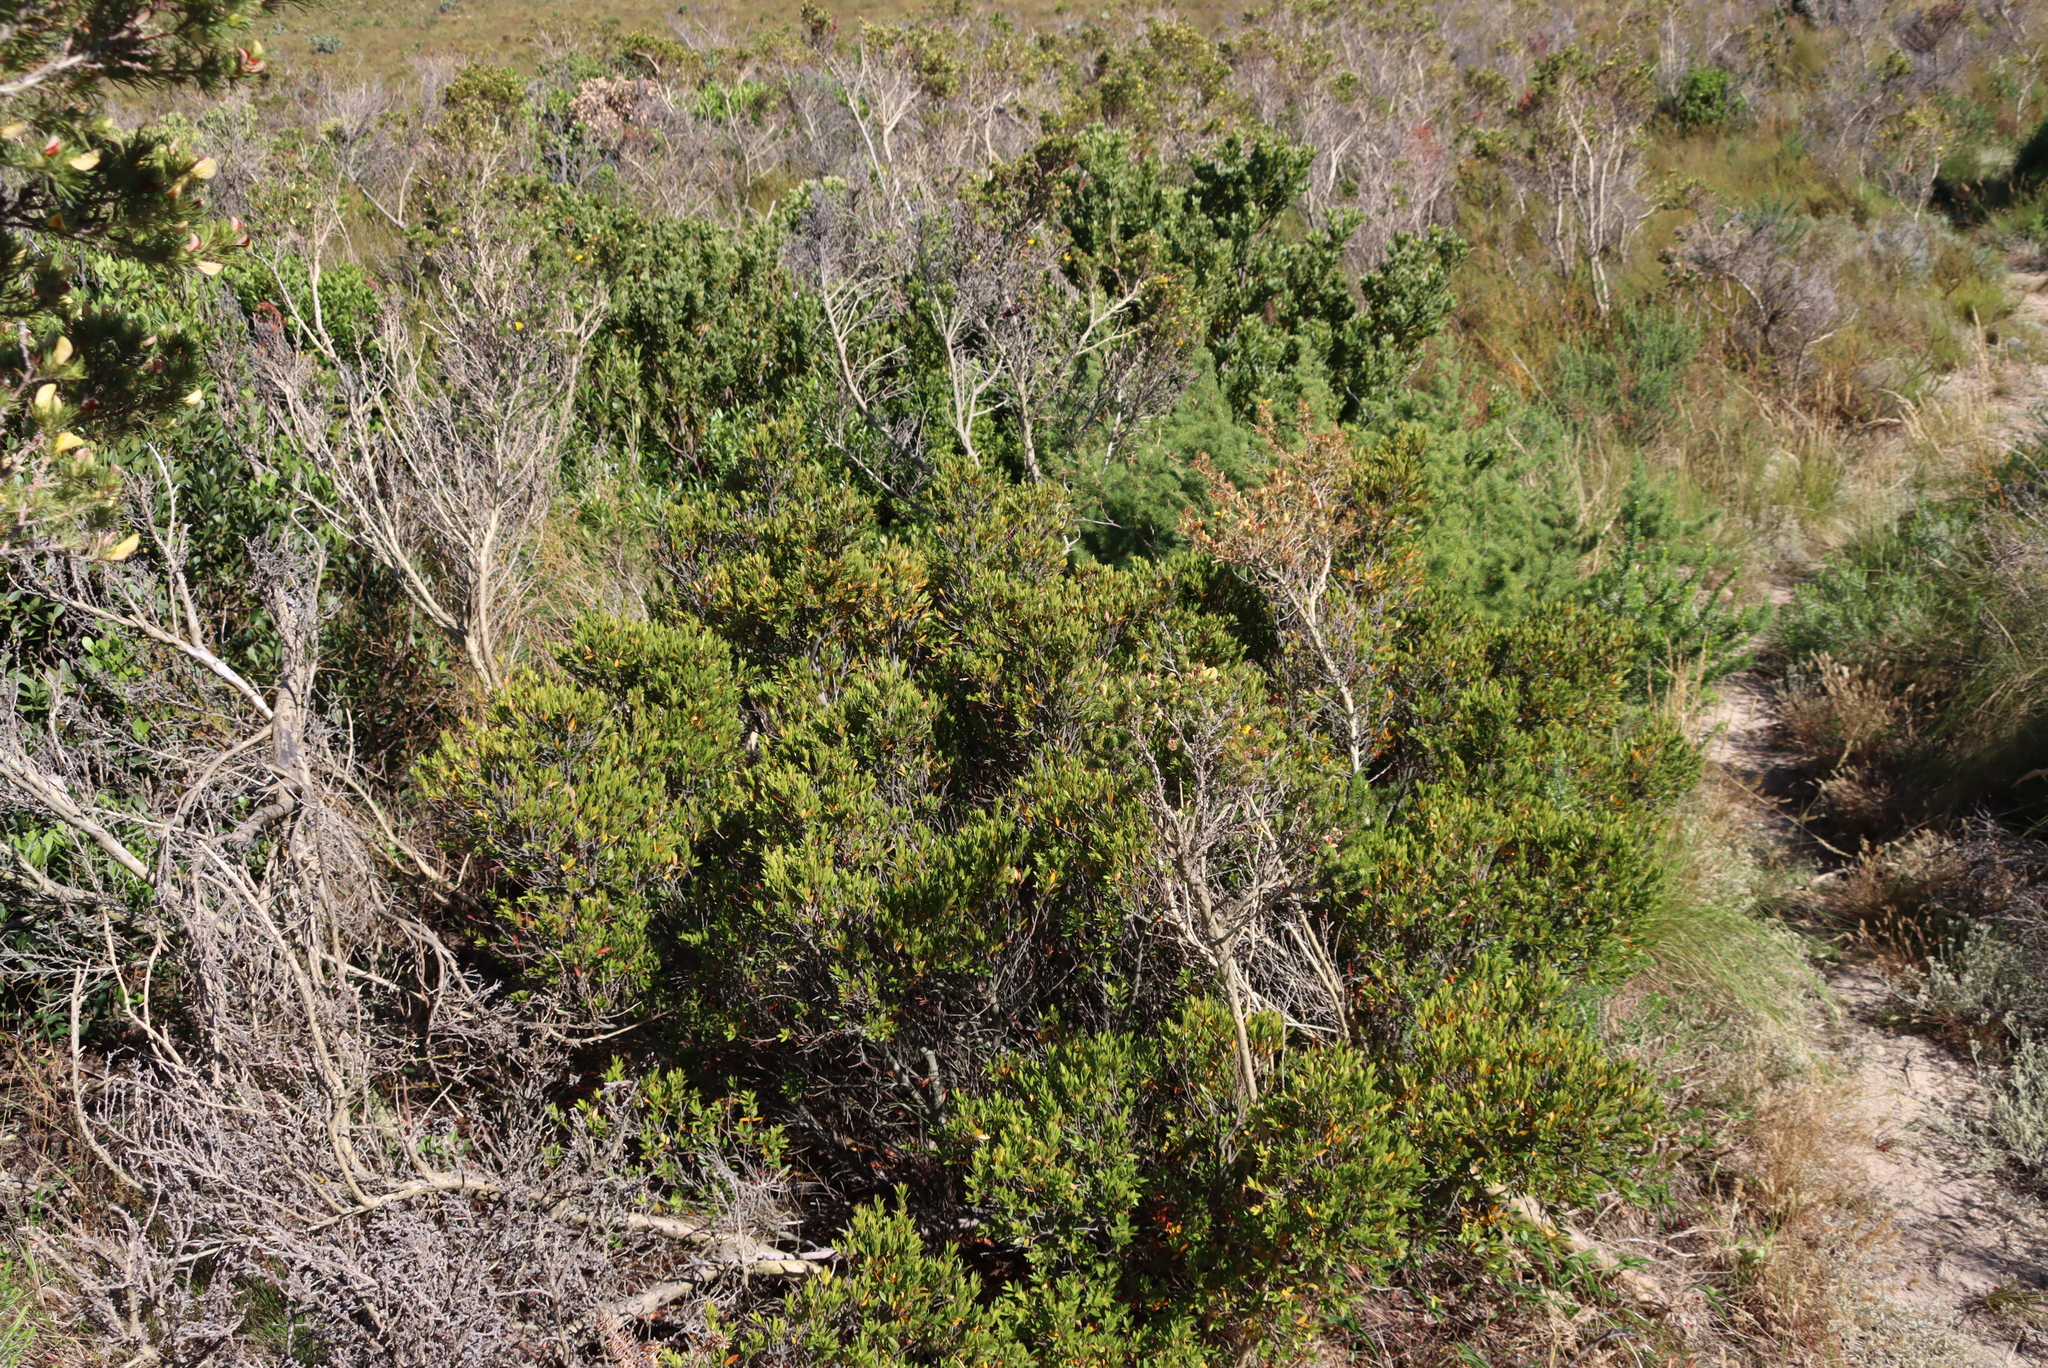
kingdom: Plantae
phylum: Tracheophyta
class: Magnoliopsida
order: Ericales
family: Ebenaceae
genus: Diospyros
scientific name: Diospyros glabra
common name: Fynbos star apple
